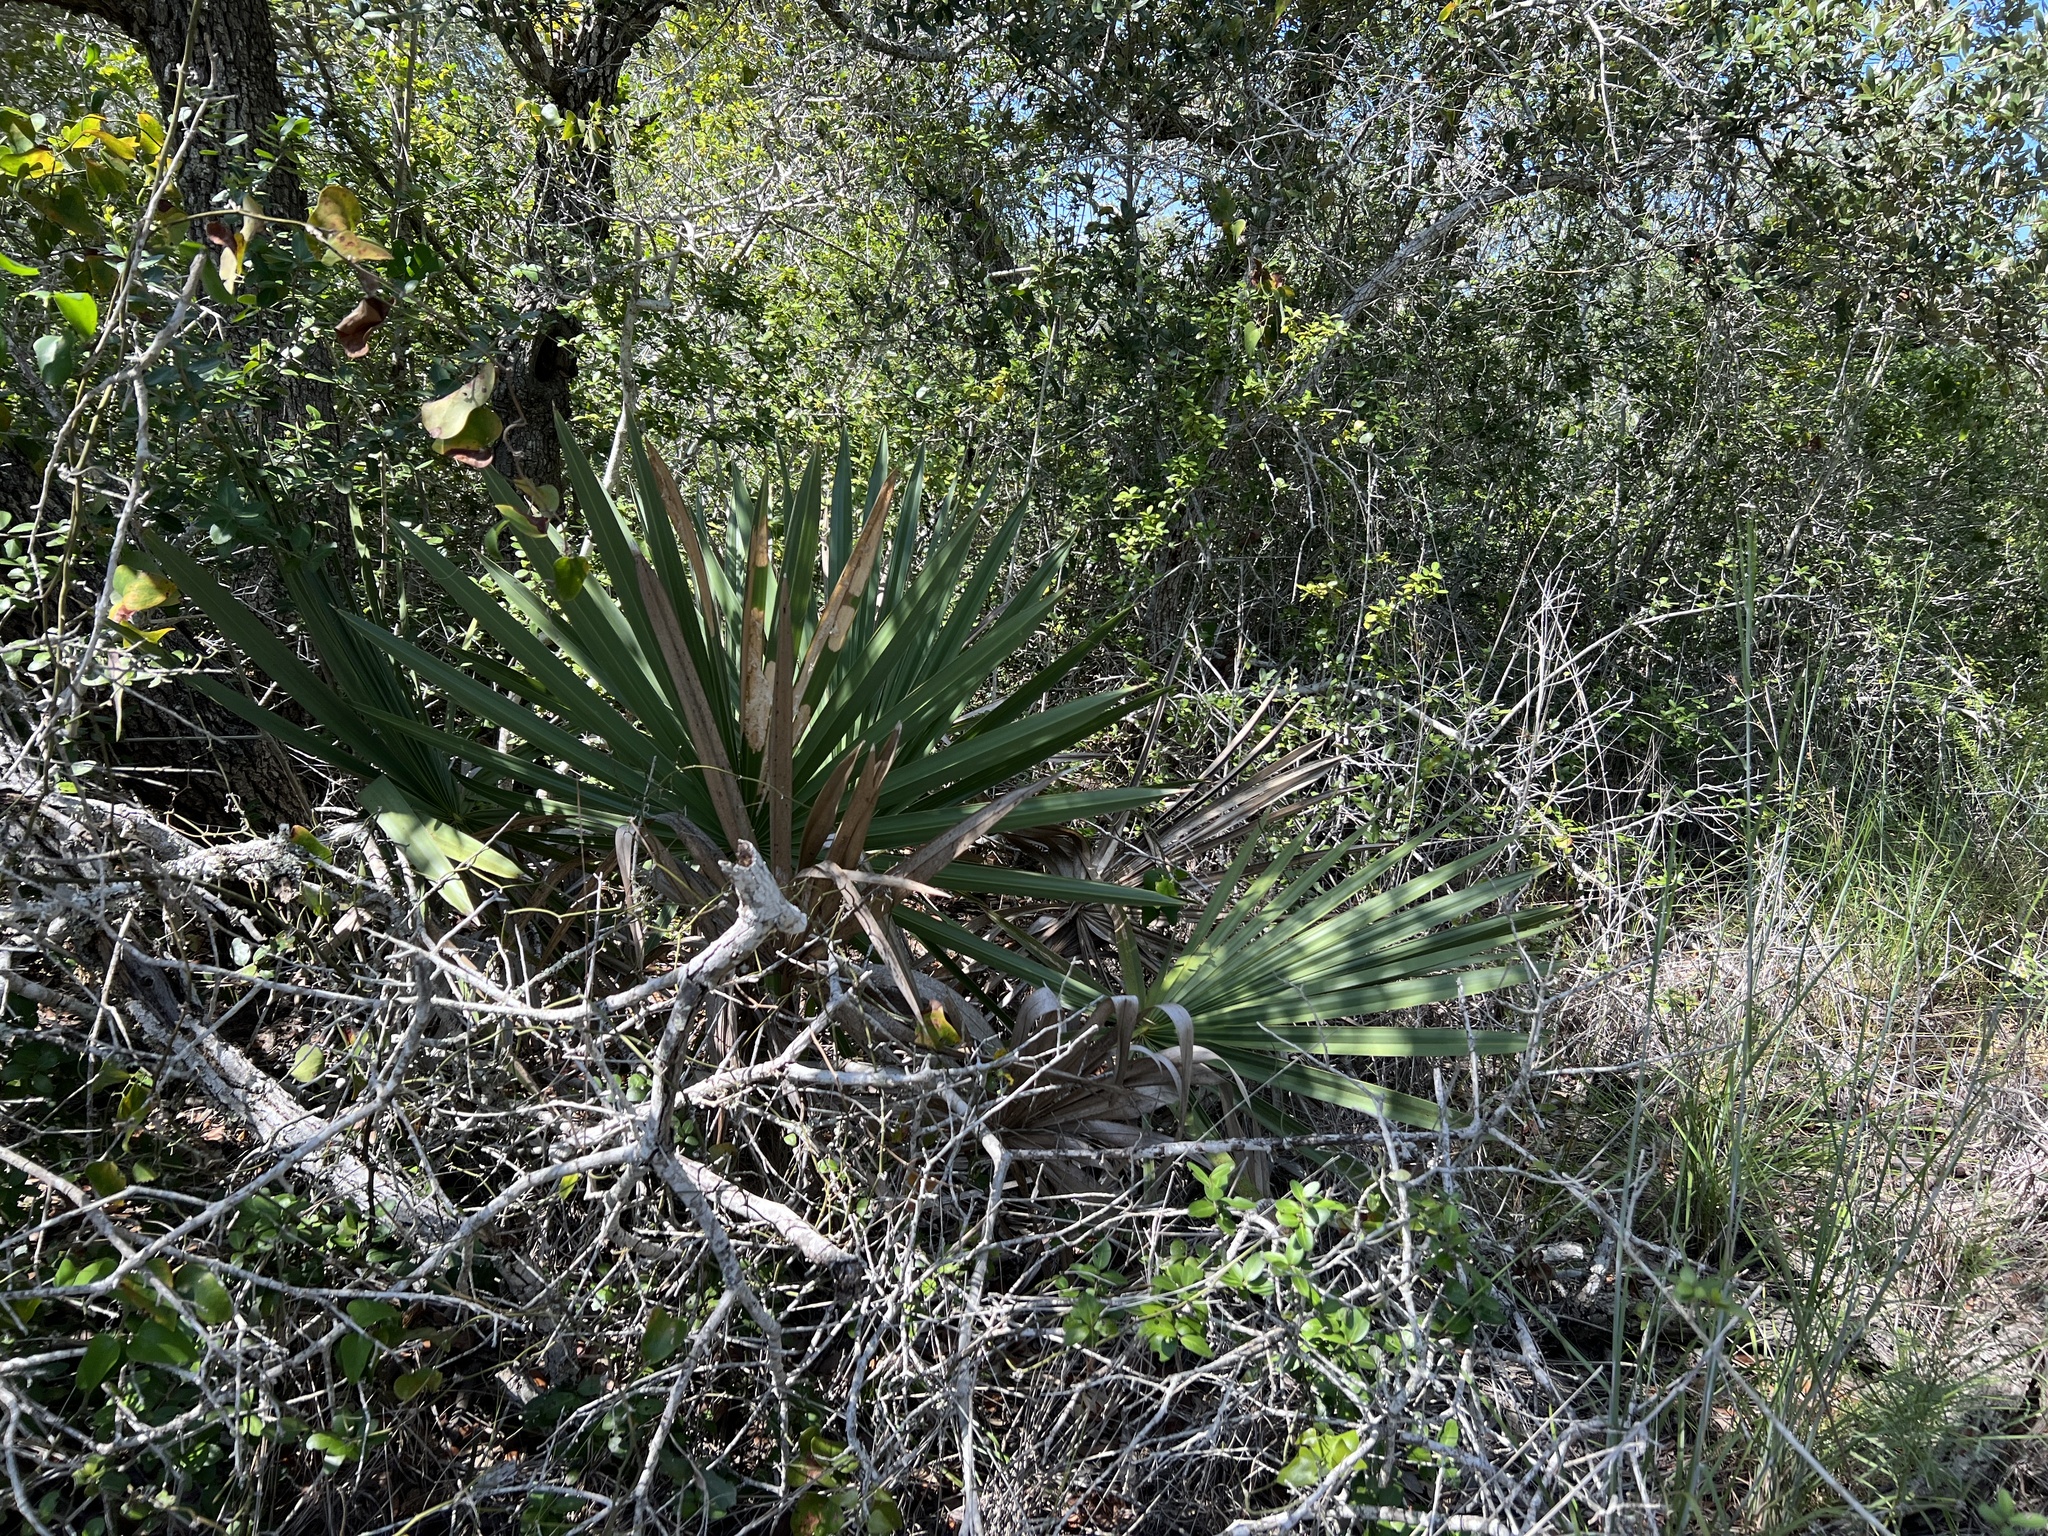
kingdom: Plantae
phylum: Tracheophyta
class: Liliopsida
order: Arecales
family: Arecaceae
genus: Sabal
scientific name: Sabal minor
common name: Dwarf palmetto
